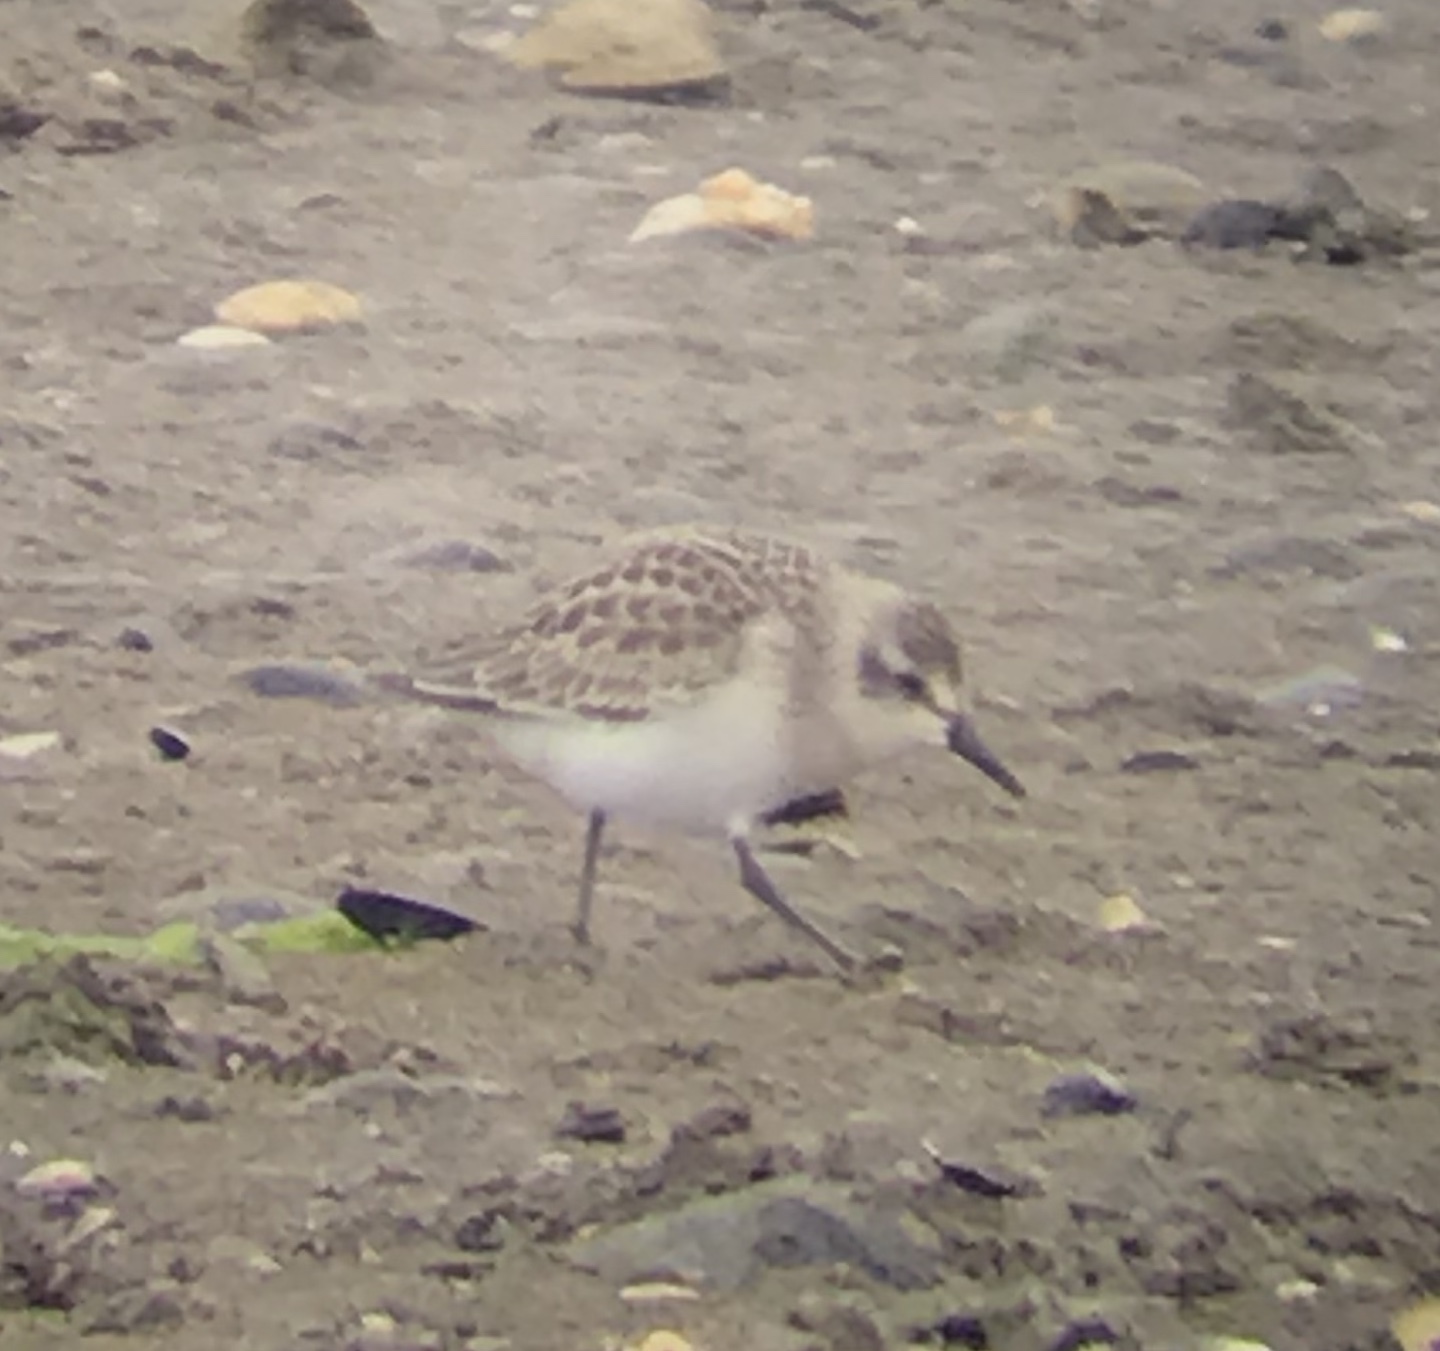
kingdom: Animalia
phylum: Chordata
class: Aves
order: Charadriiformes
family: Scolopacidae
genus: Calidris
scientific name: Calidris pusilla
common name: Semipalmated sandpiper
